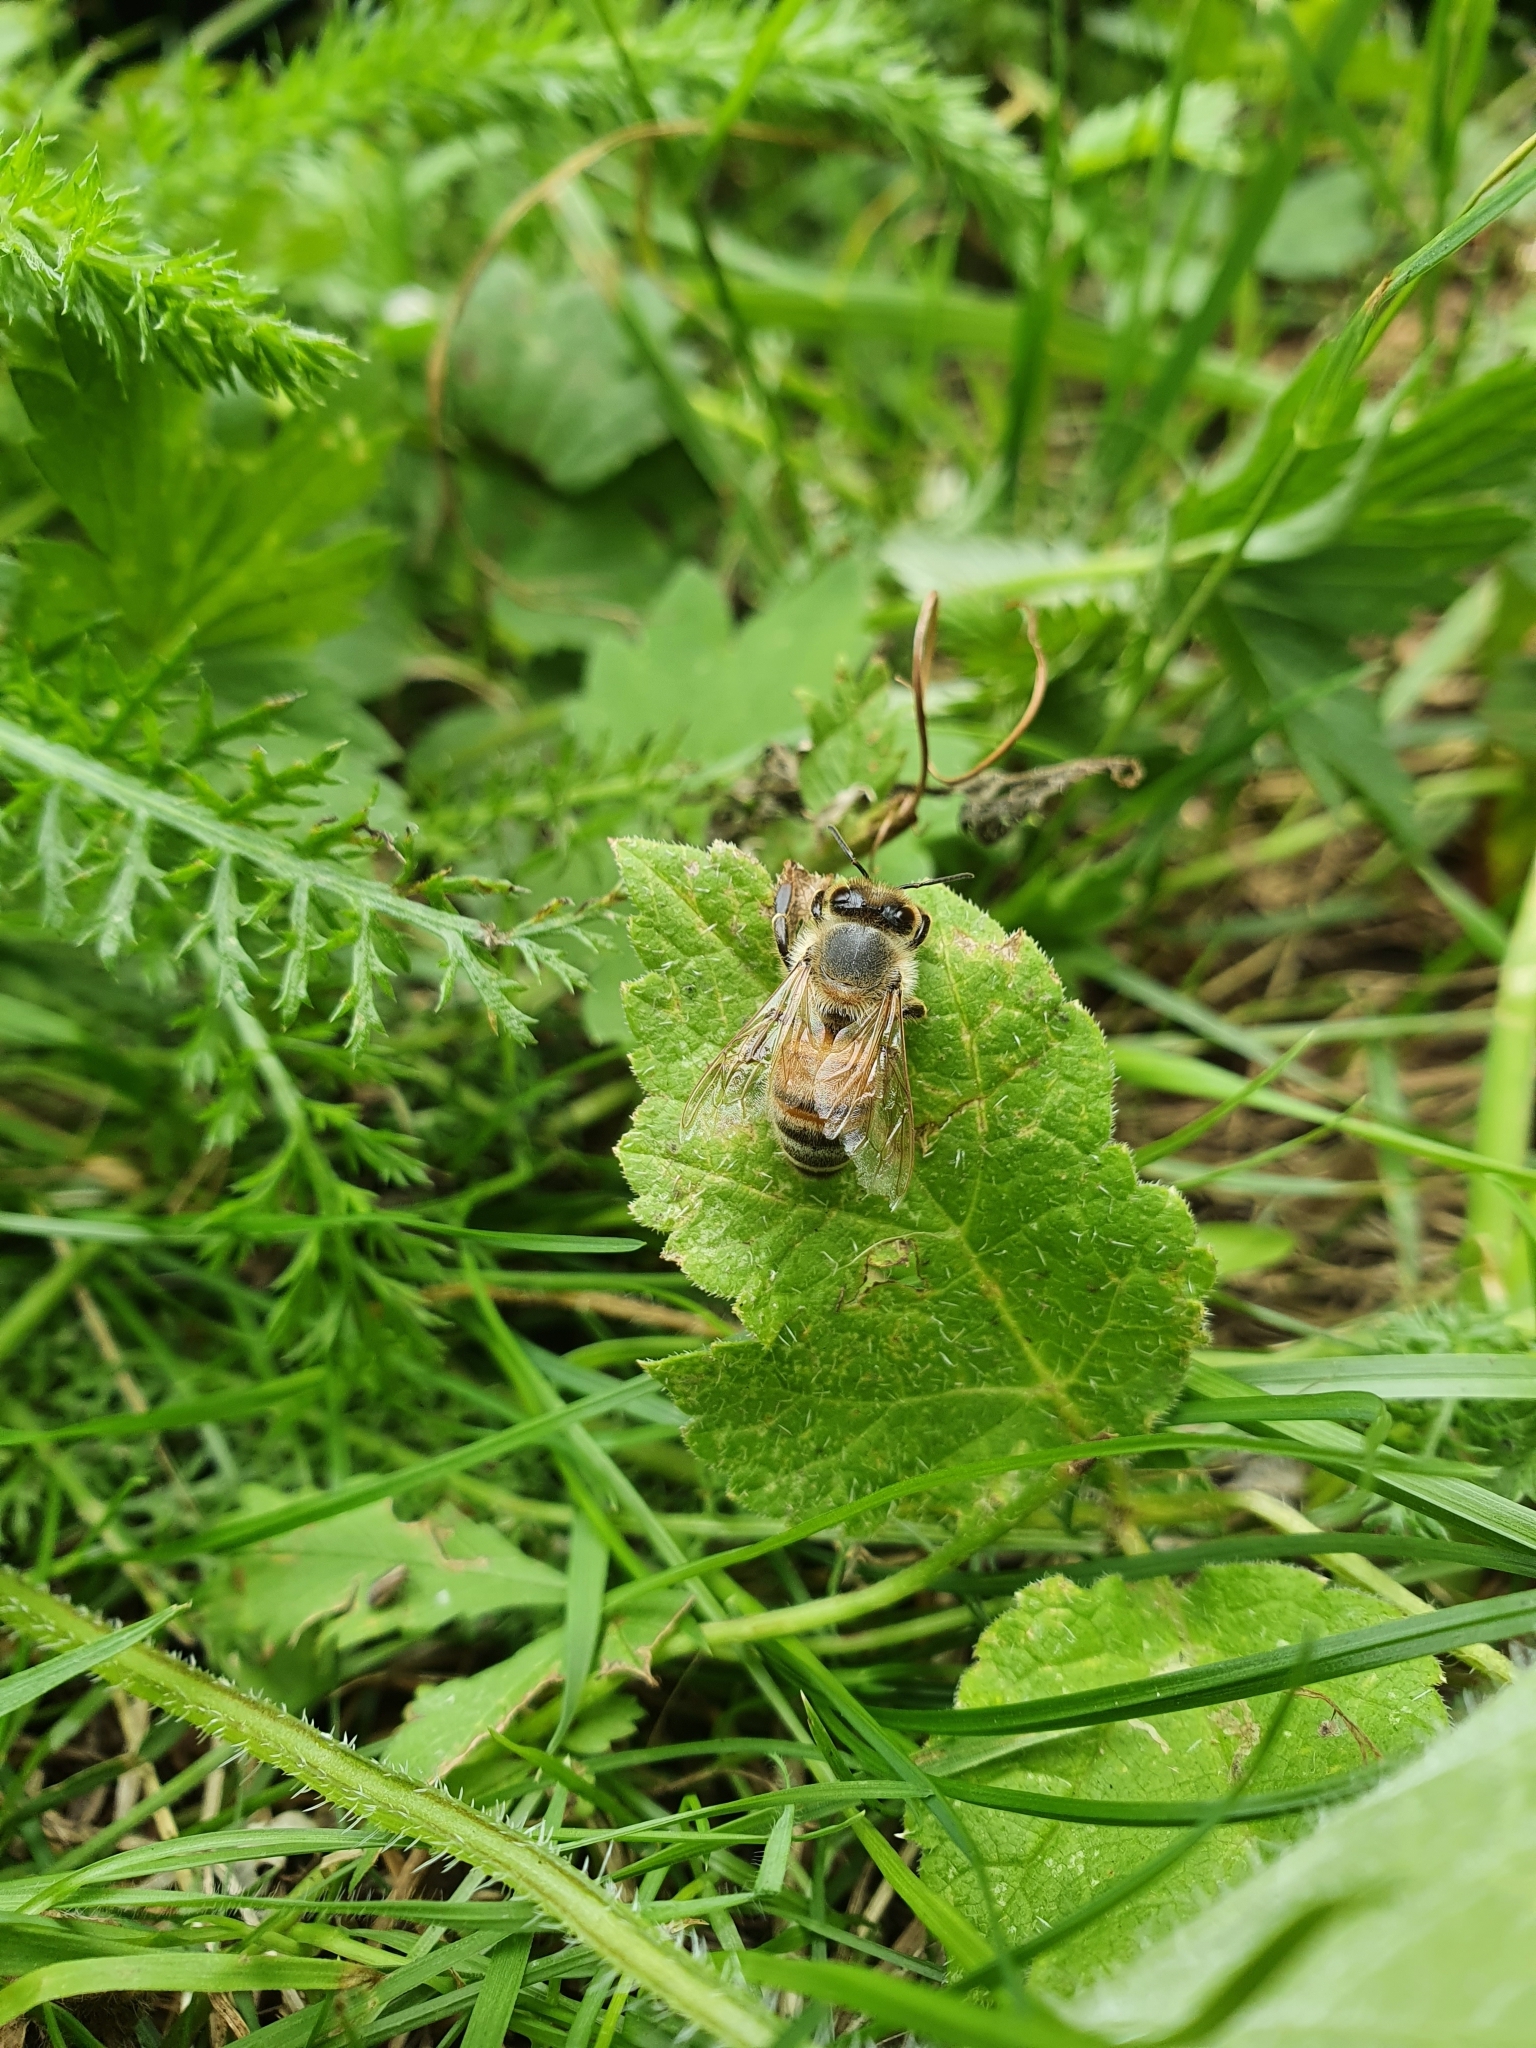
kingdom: Animalia
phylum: Arthropoda
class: Insecta
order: Hymenoptera
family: Apidae
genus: Apis
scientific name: Apis mellifera
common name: Honey bee
